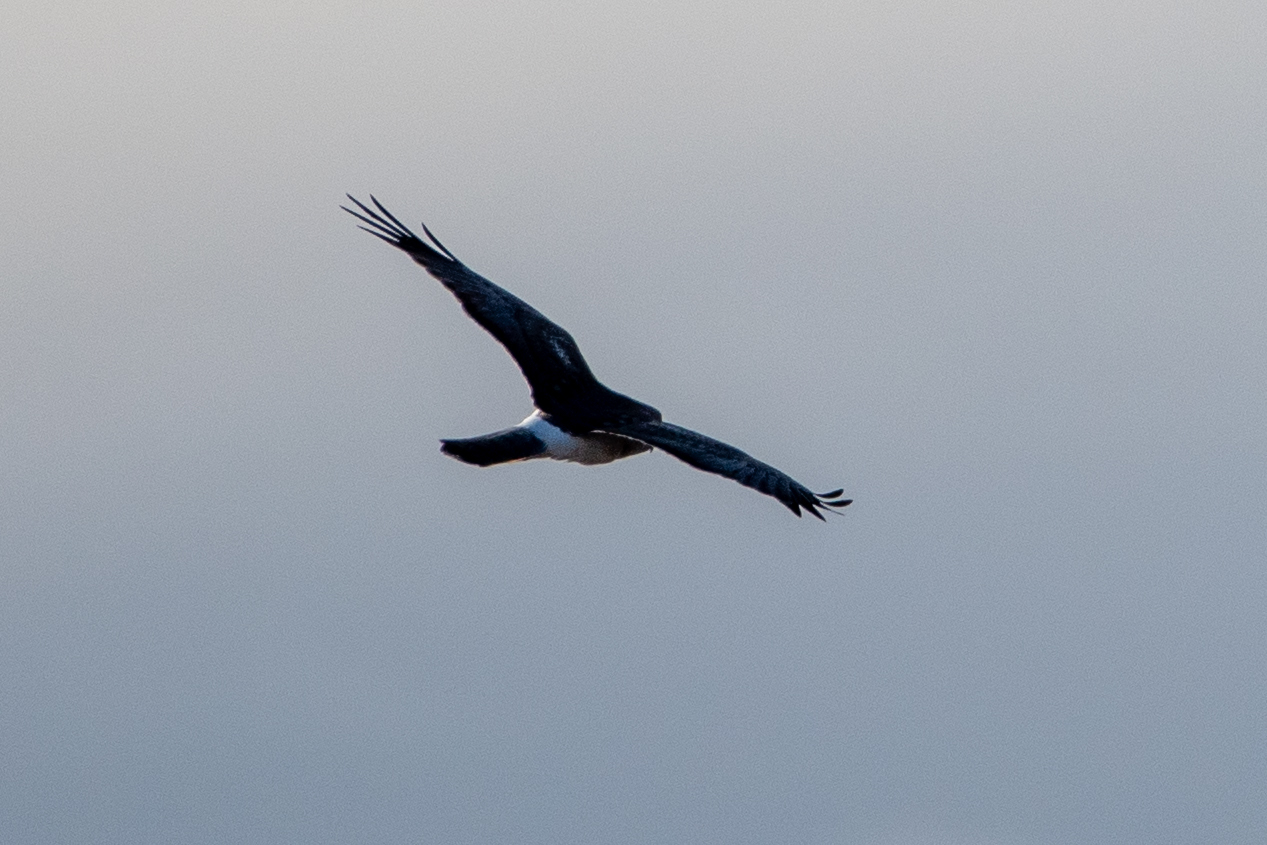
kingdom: Animalia
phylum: Chordata
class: Aves
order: Accipitriformes
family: Accipitridae
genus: Circus
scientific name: Circus cyaneus
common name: Hen harrier
